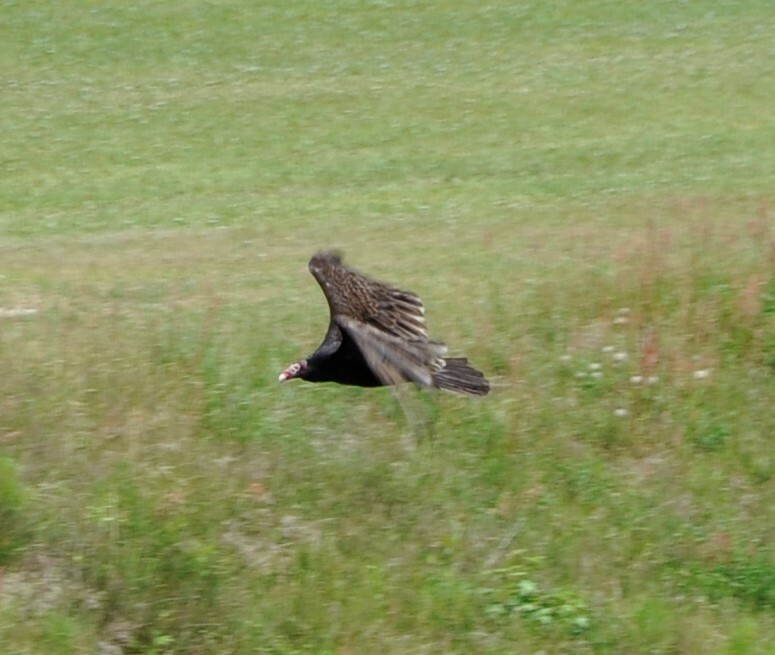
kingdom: Animalia
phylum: Chordata
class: Aves
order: Accipitriformes
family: Cathartidae
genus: Cathartes
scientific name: Cathartes aura
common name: Turkey vulture
